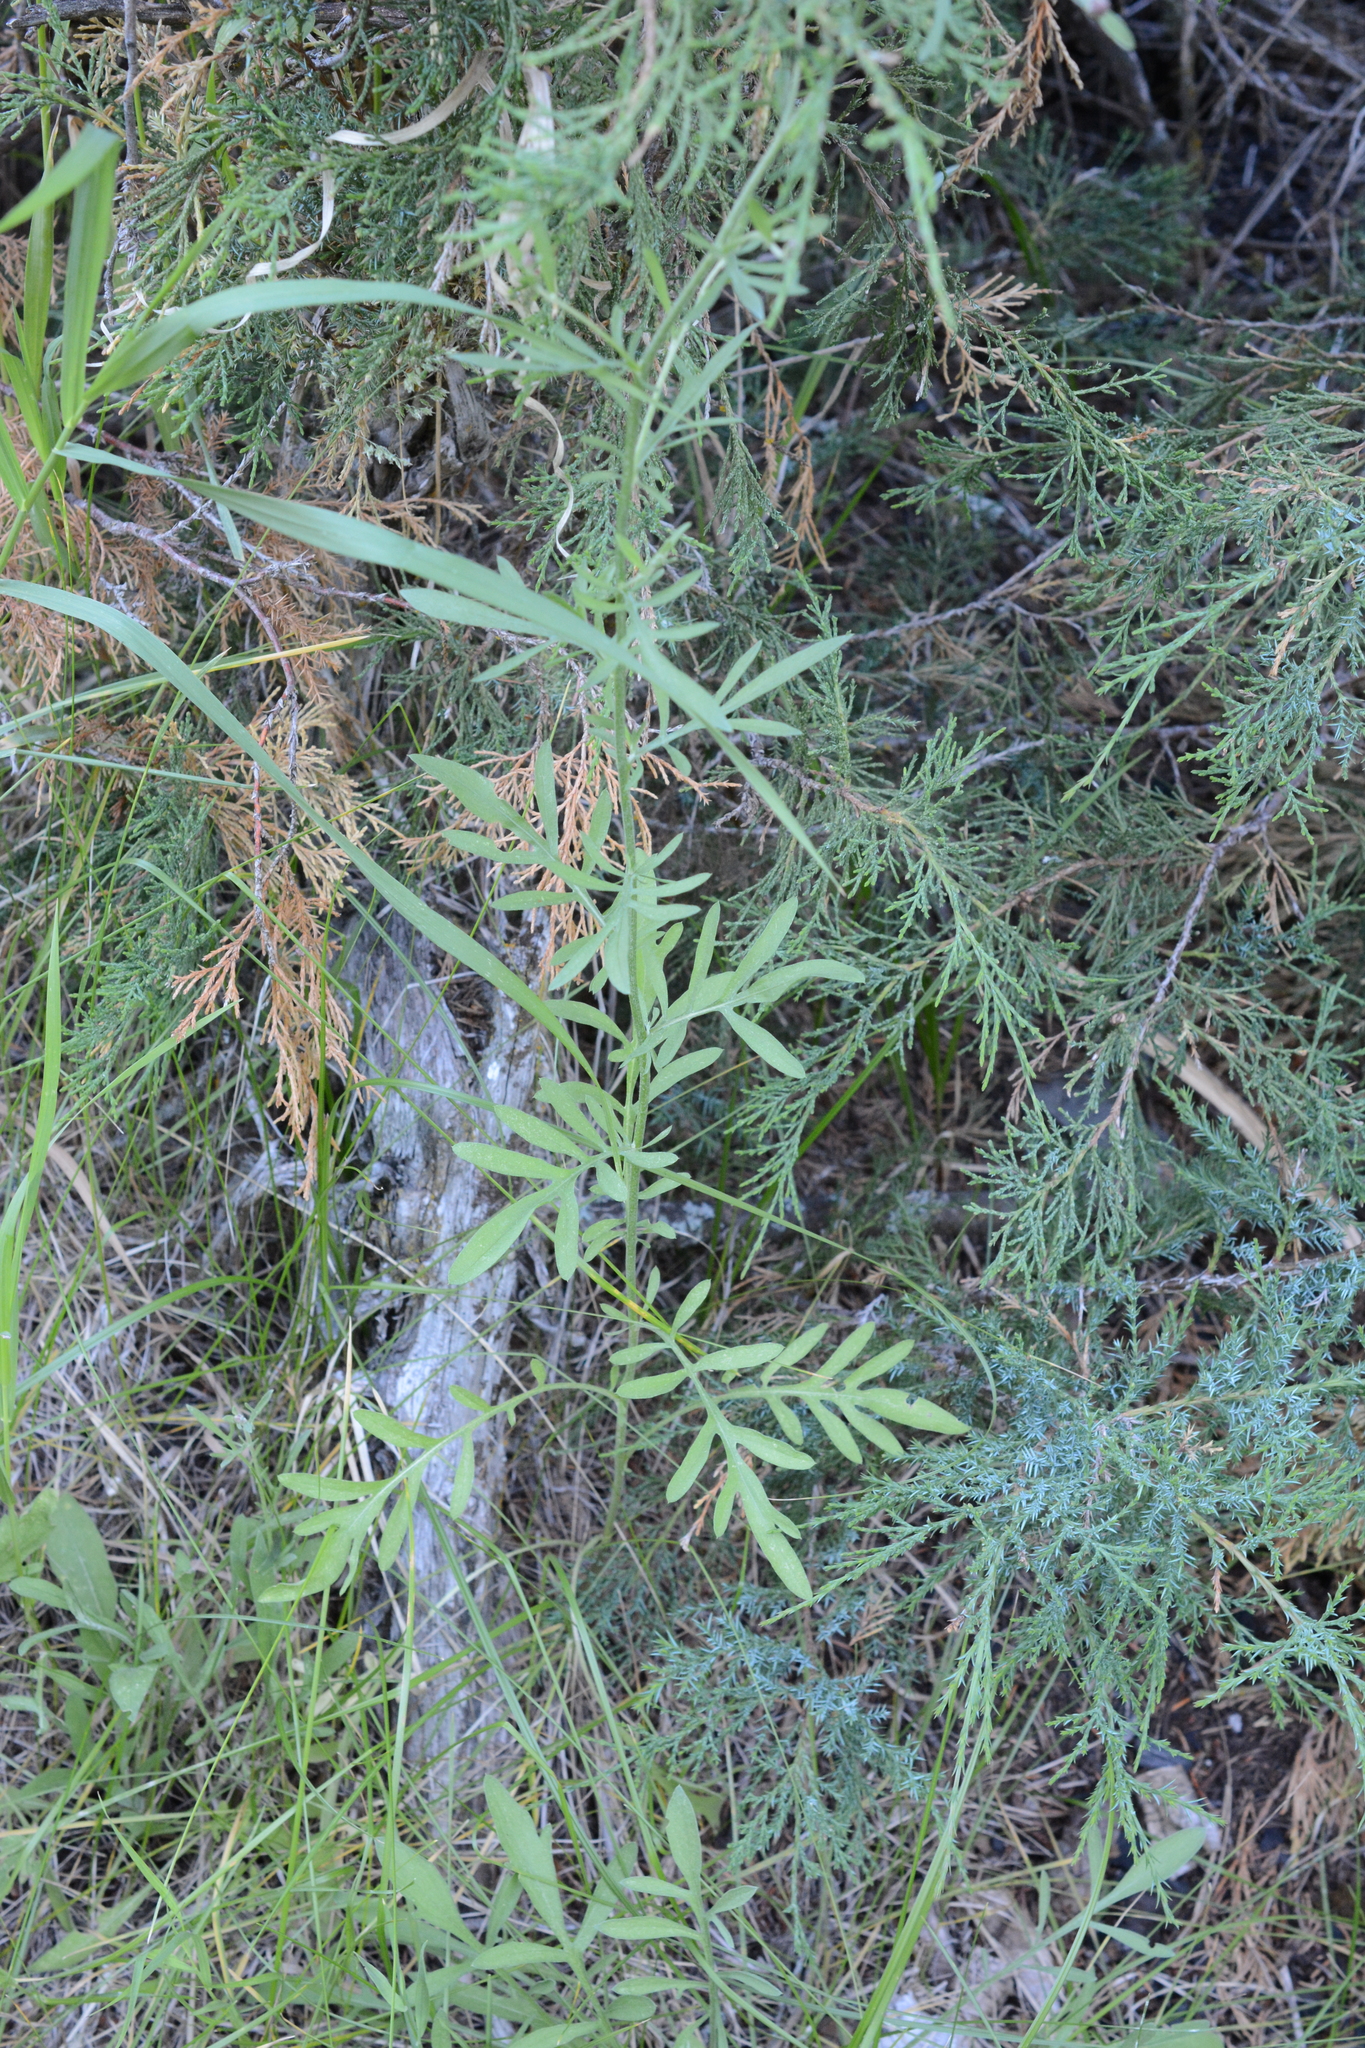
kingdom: Plantae
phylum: Tracheophyta
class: Magnoliopsida
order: Asterales
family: Asteraceae
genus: Centaurea
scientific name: Centaurea stoebe
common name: Spotted knapweed
